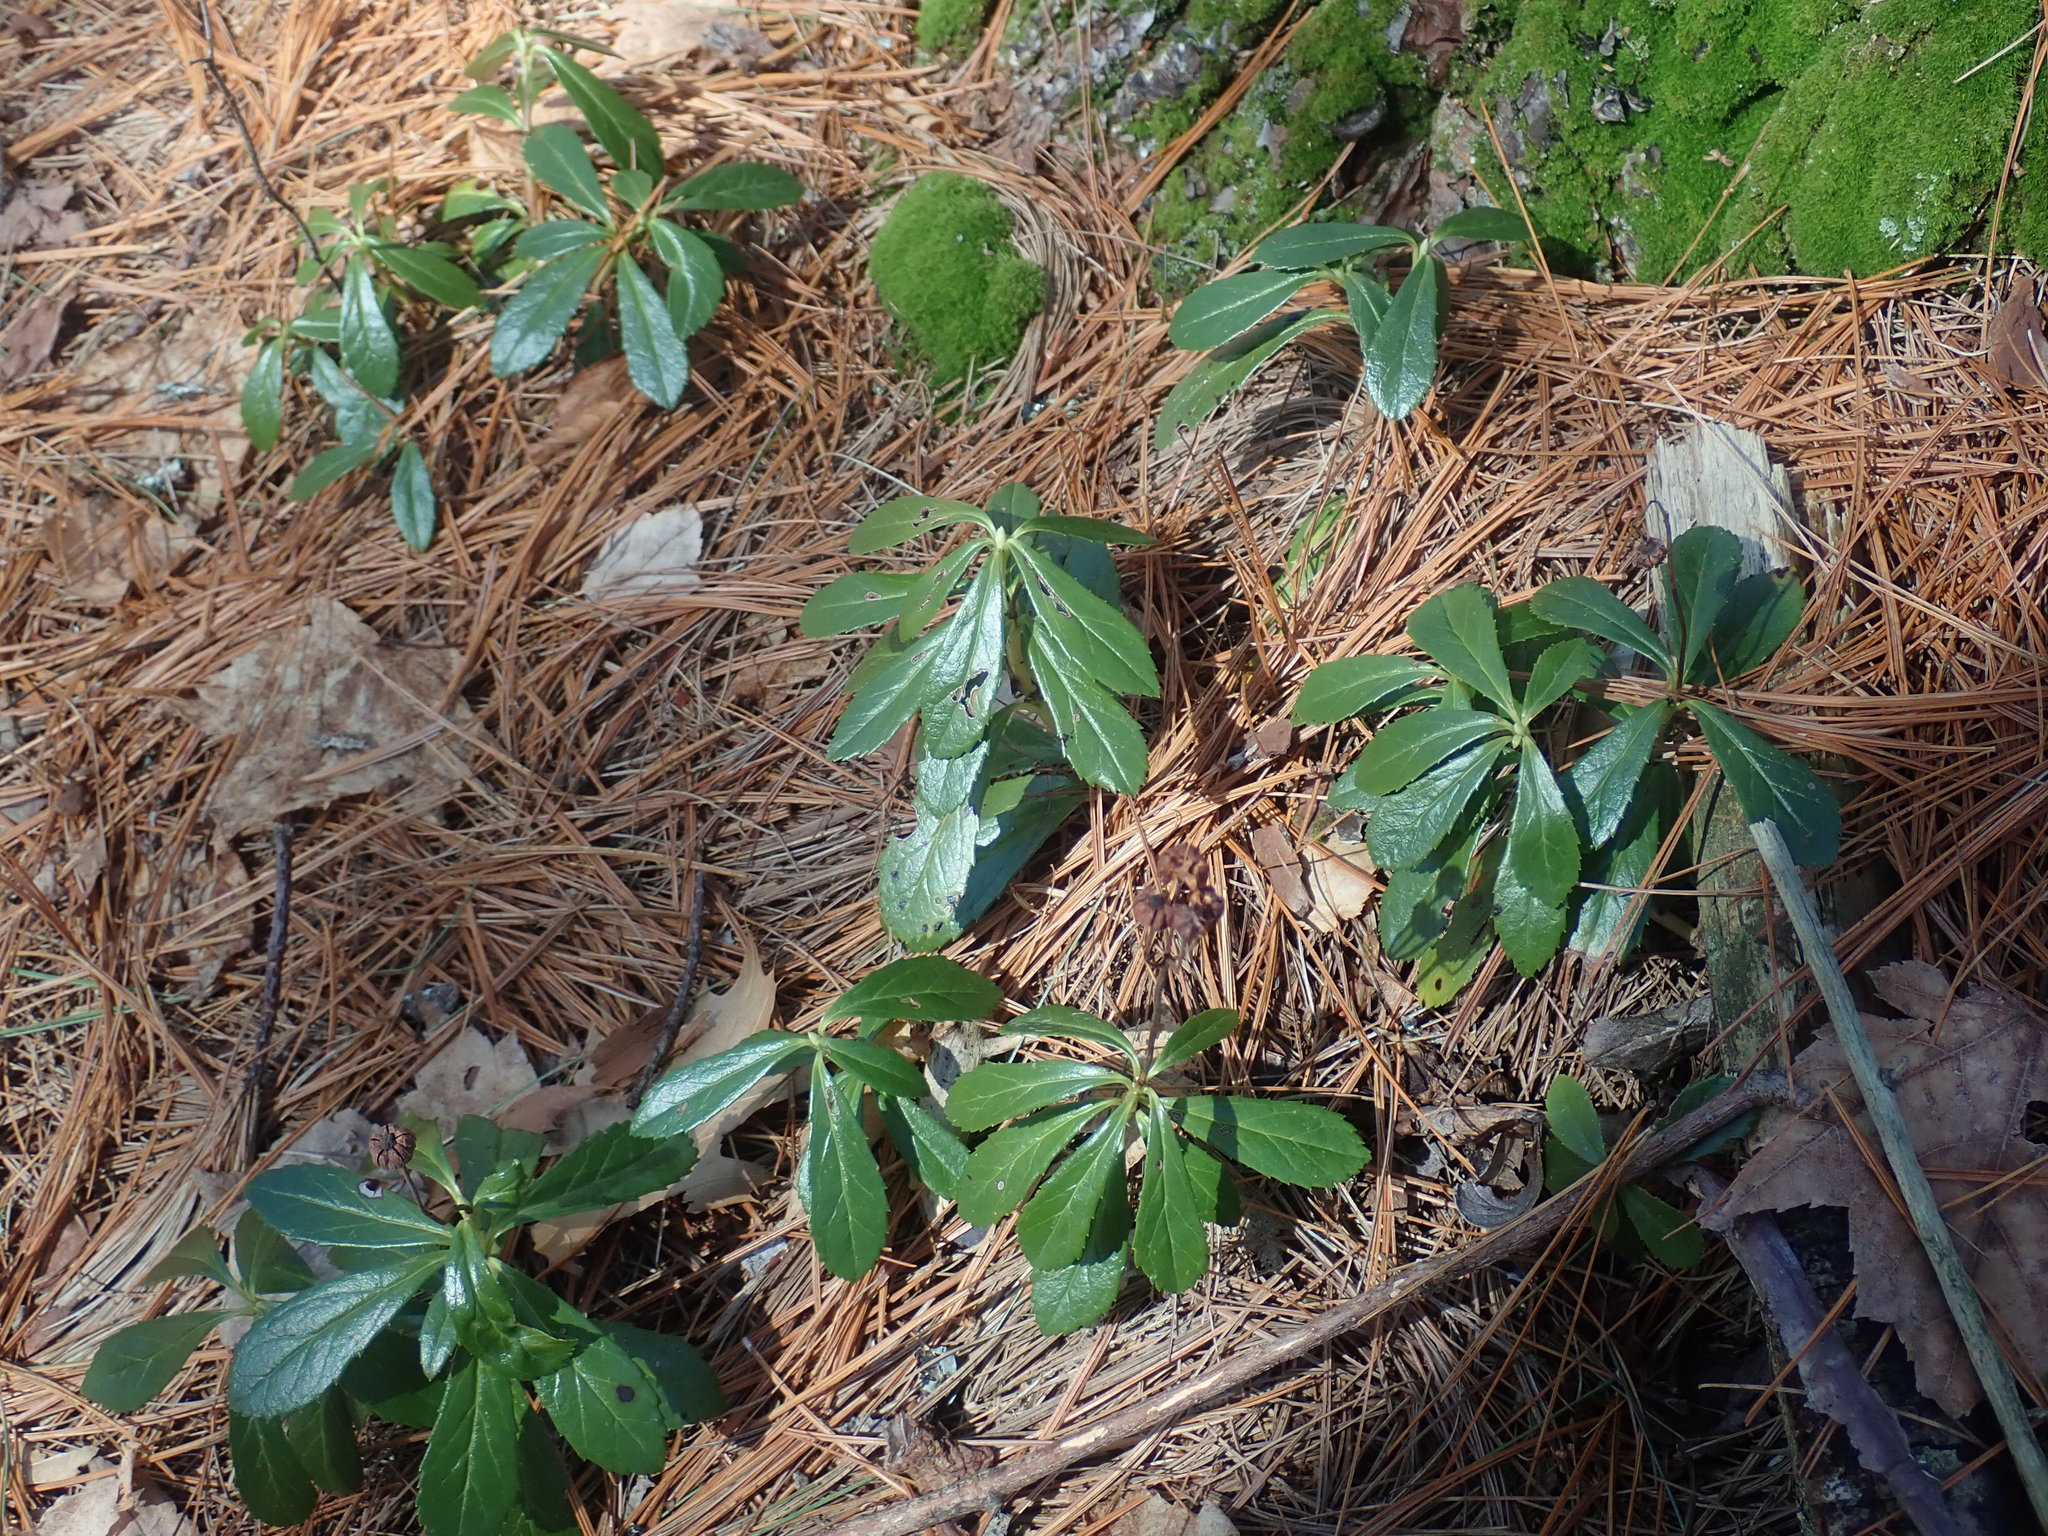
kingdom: Plantae
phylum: Tracheophyta
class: Magnoliopsida
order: Ericales
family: Ericaceae
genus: Chimaphila
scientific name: Chimaphila umbellata
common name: Pipsissewa
